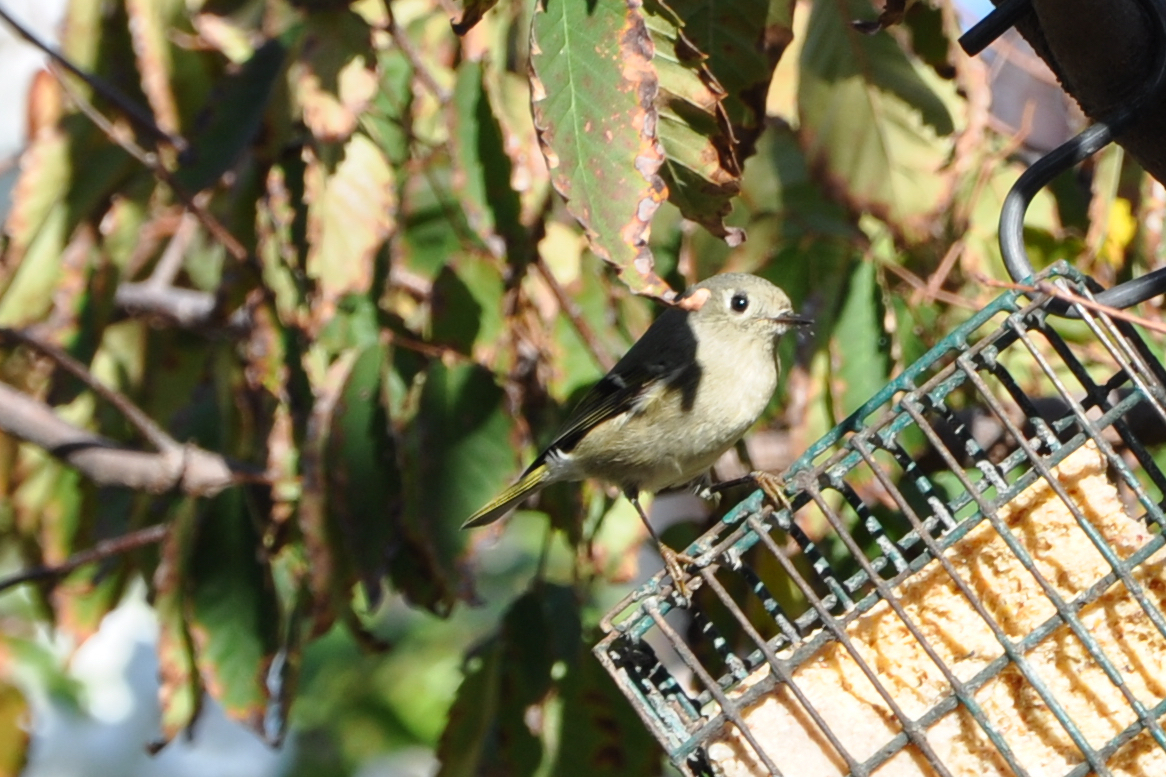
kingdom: Animalia
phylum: Chordata
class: Aves
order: Passeriformes
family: Regulidae
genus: Regulus
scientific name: Regulus calendula
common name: Ruby-crowned kinglet
